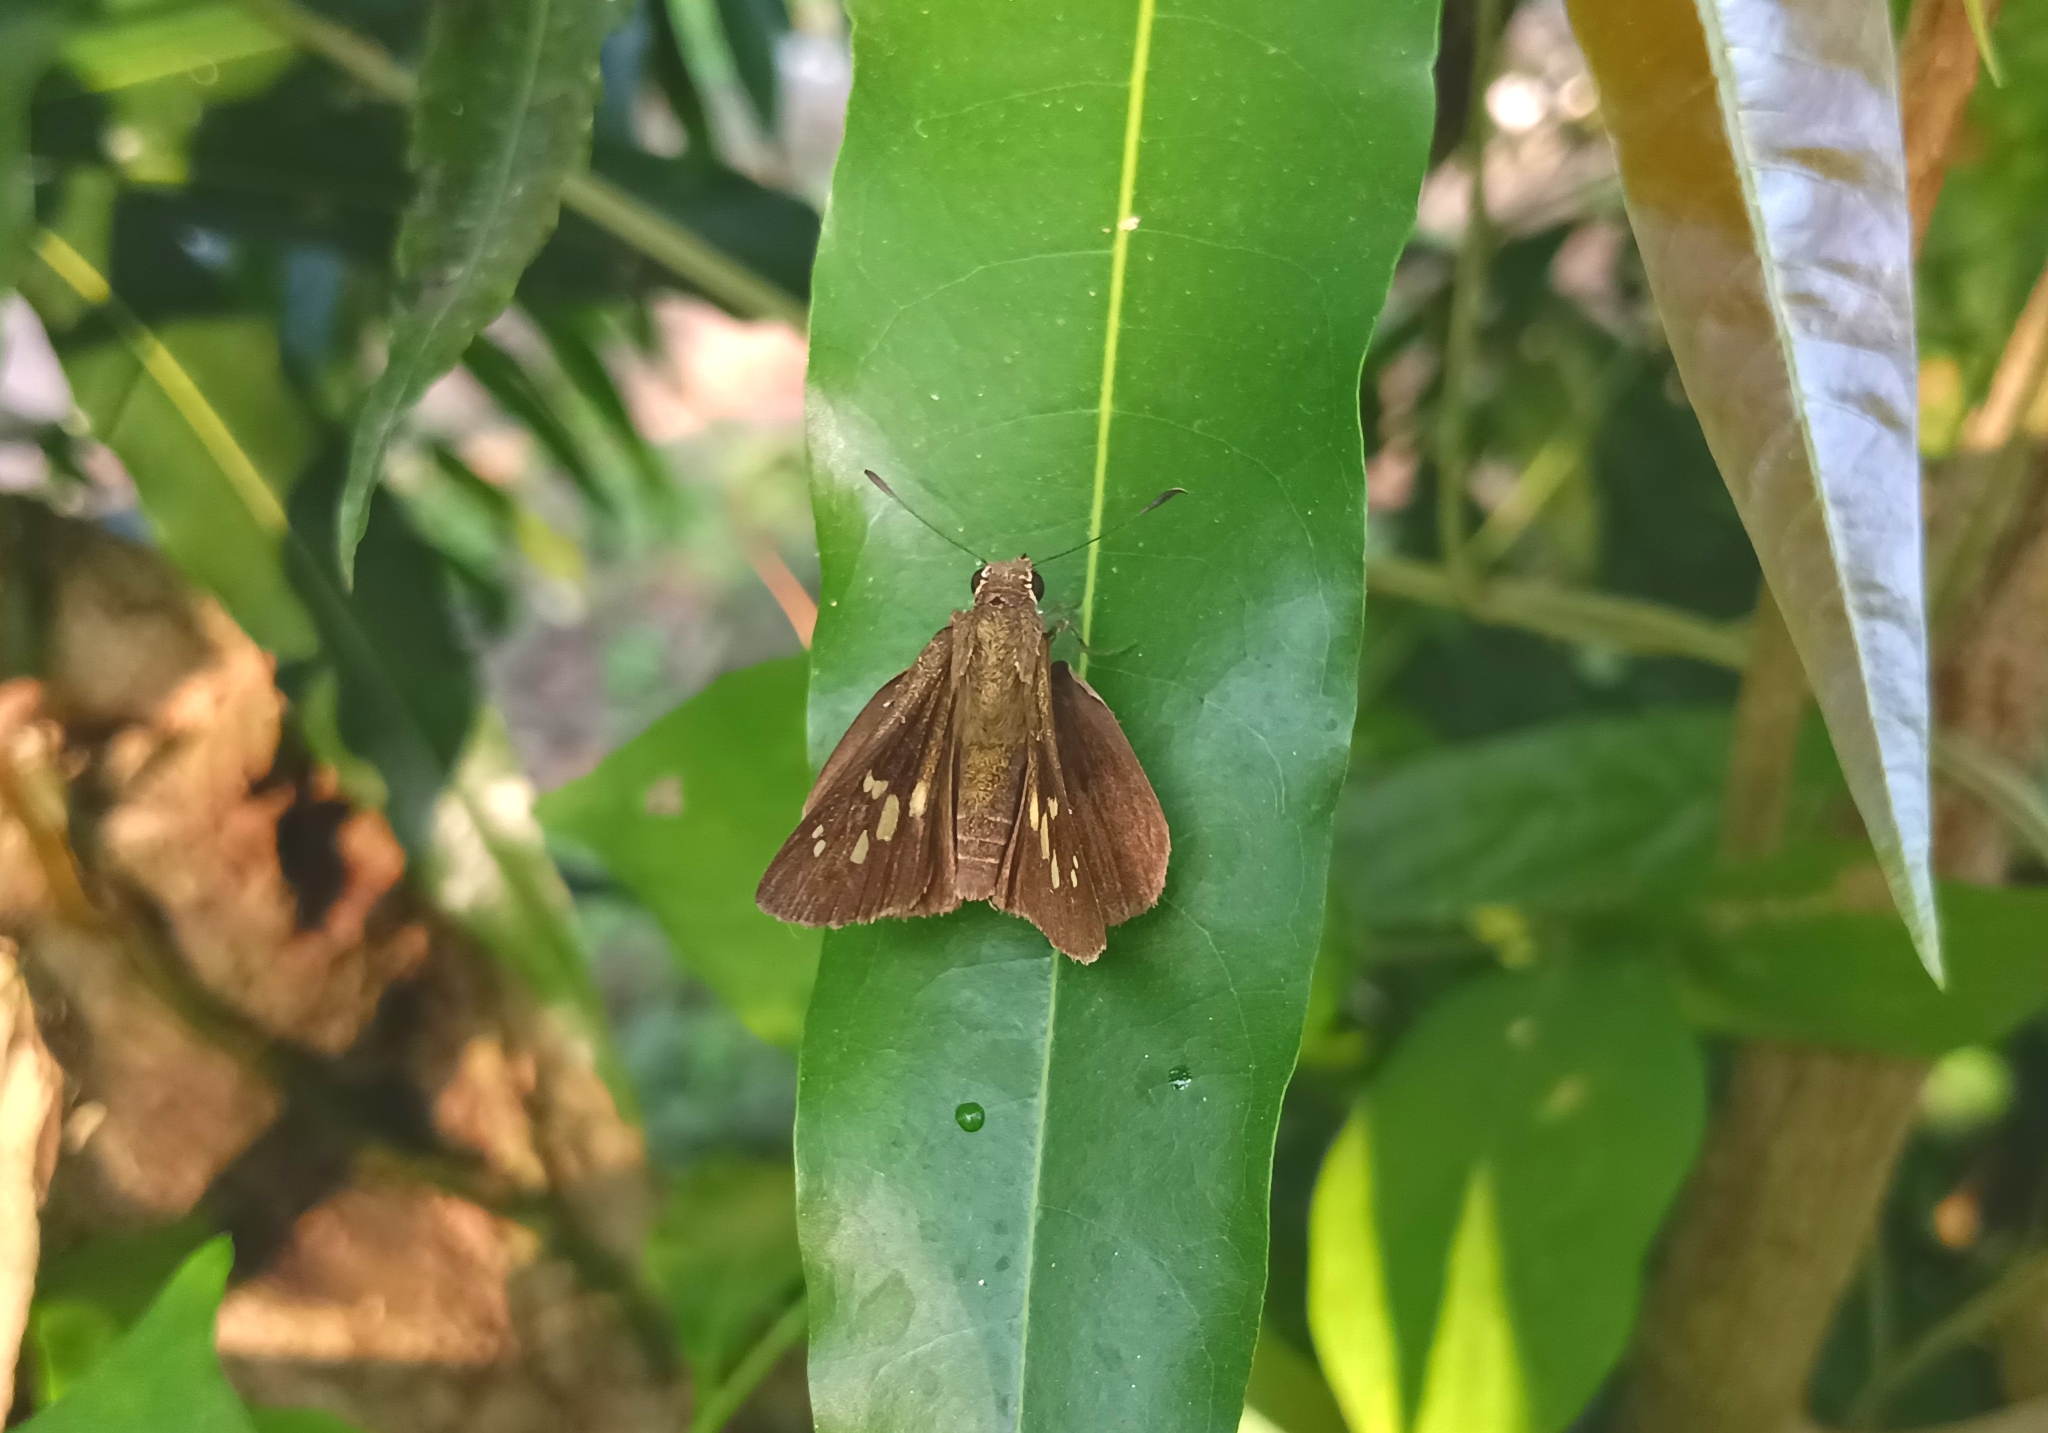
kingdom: Animalia
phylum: Arthropoda
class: Insecta
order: Lepidoptera
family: Hesperiidae
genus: Suastus
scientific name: Suastus gremius
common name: Indian palm bob
